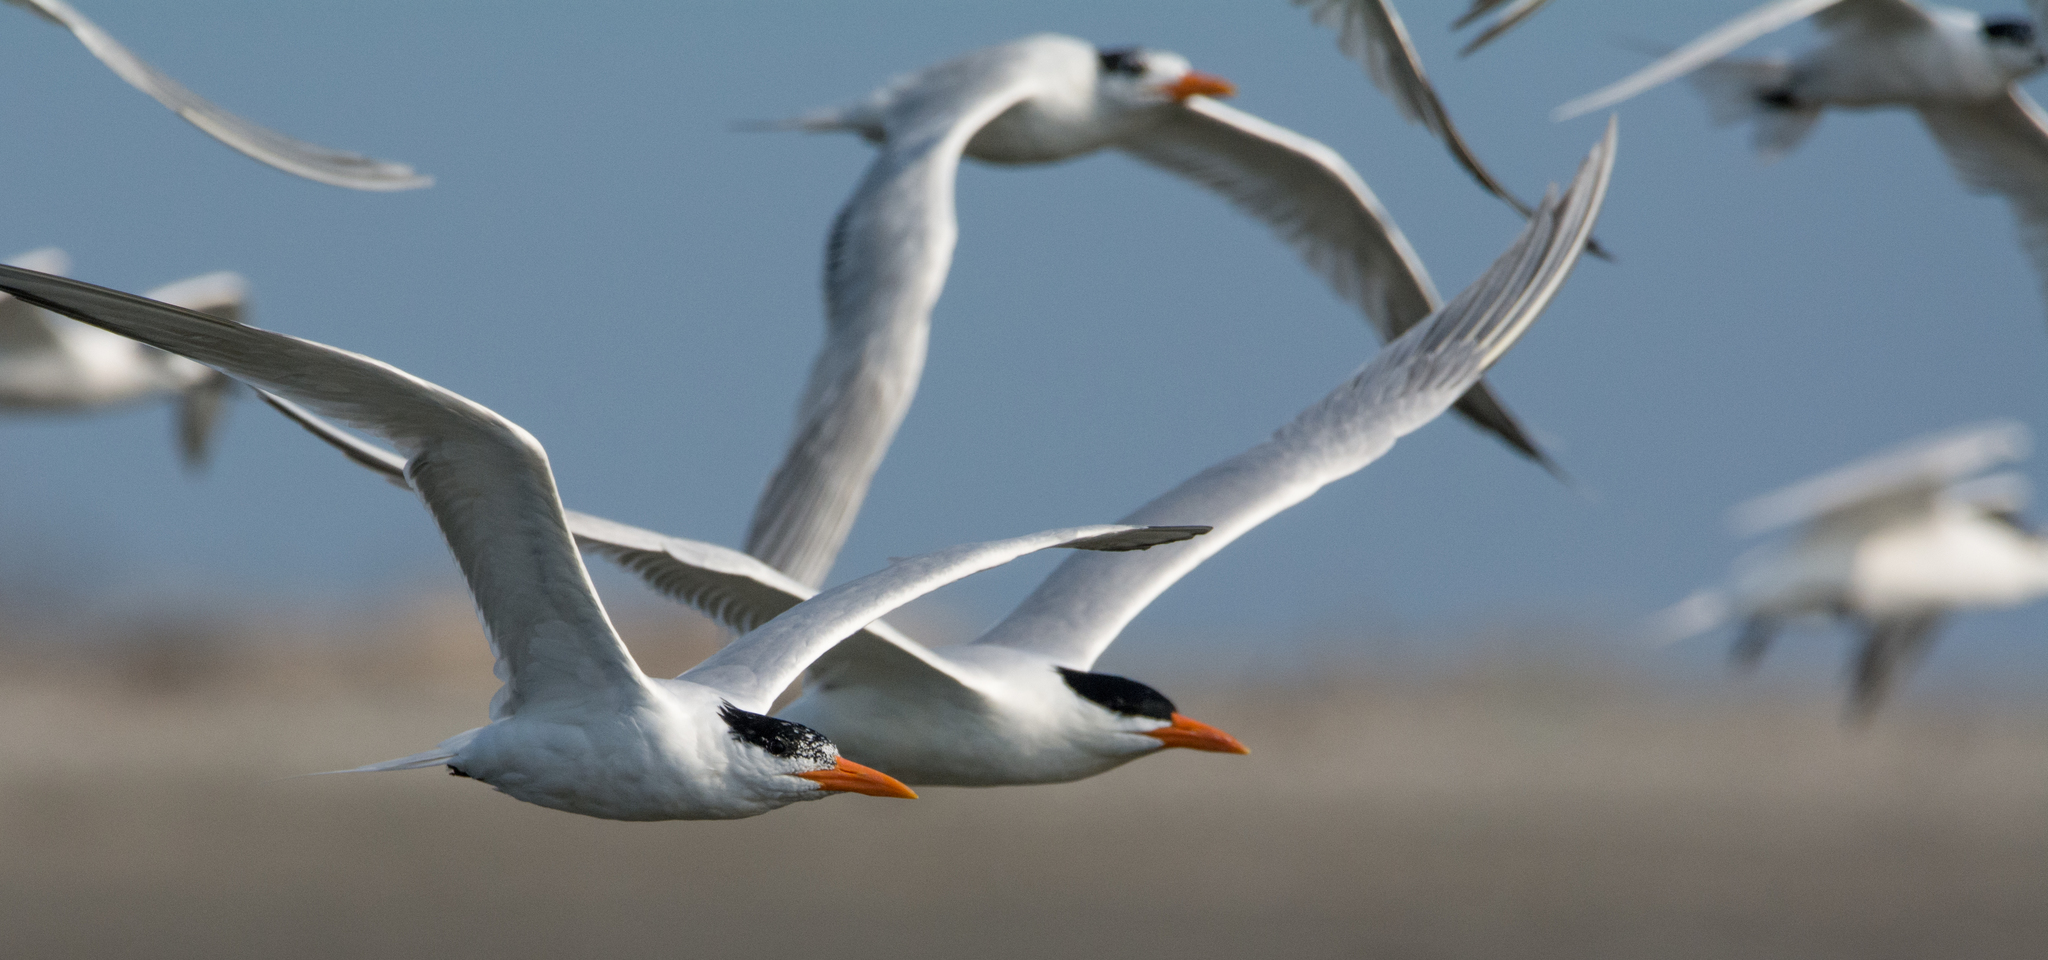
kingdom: Animalia
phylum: Chordata
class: Aves
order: Charadriiformes
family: Laridae
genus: Thalasseus
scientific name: Thalasseus maximus
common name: Royal tern
